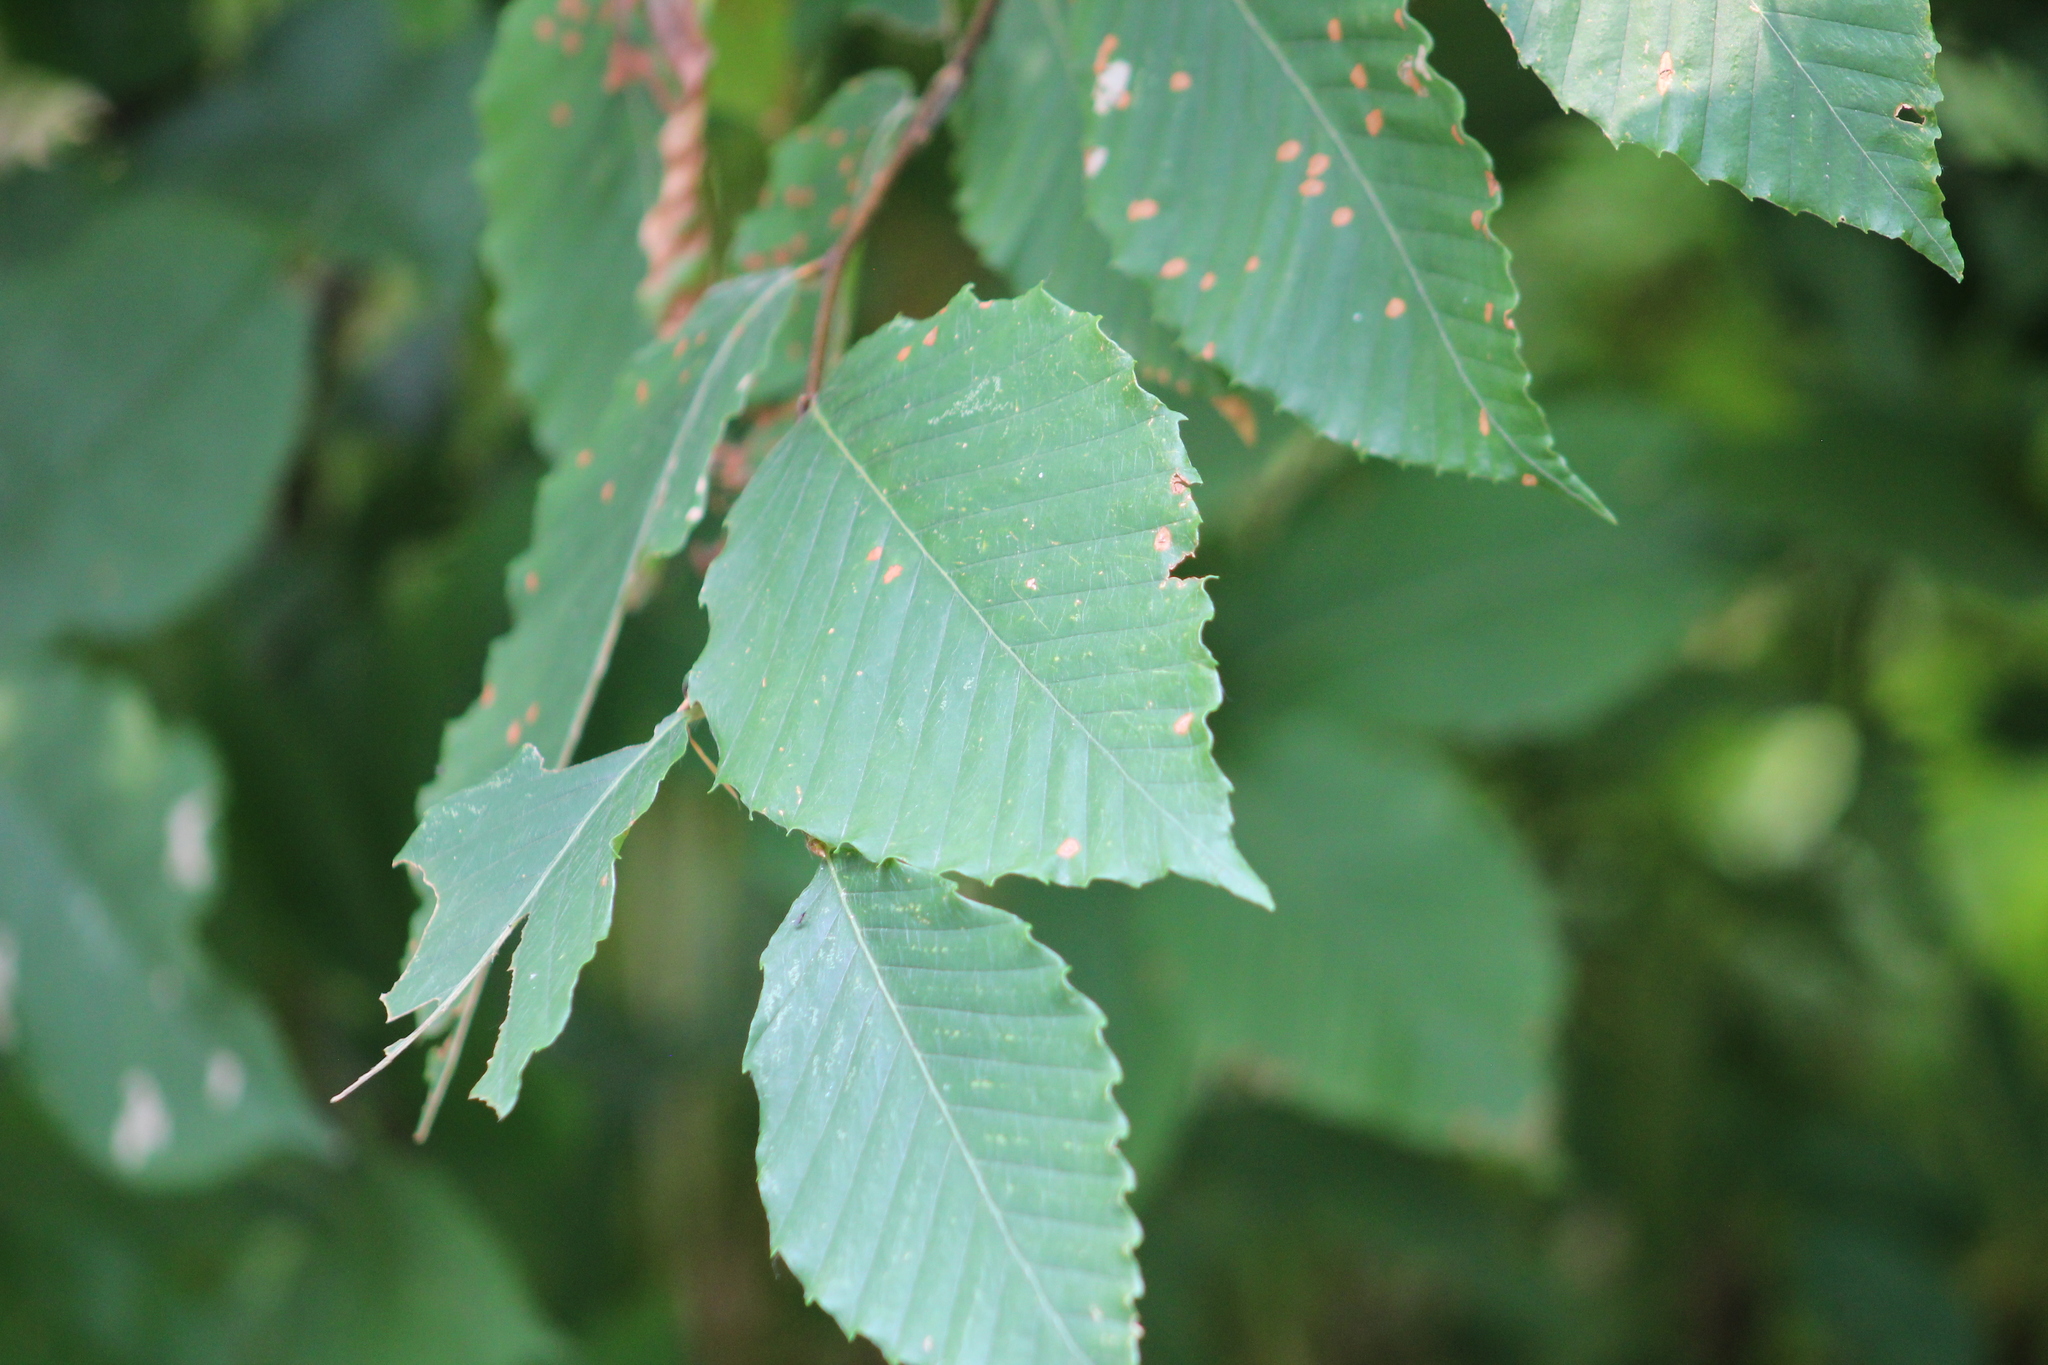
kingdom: Plantae
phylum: Tracheophyta
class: Magnoliopsida
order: Fagales
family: Fagaceae
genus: Fagus
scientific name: Fagus grandifolia
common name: American beech
